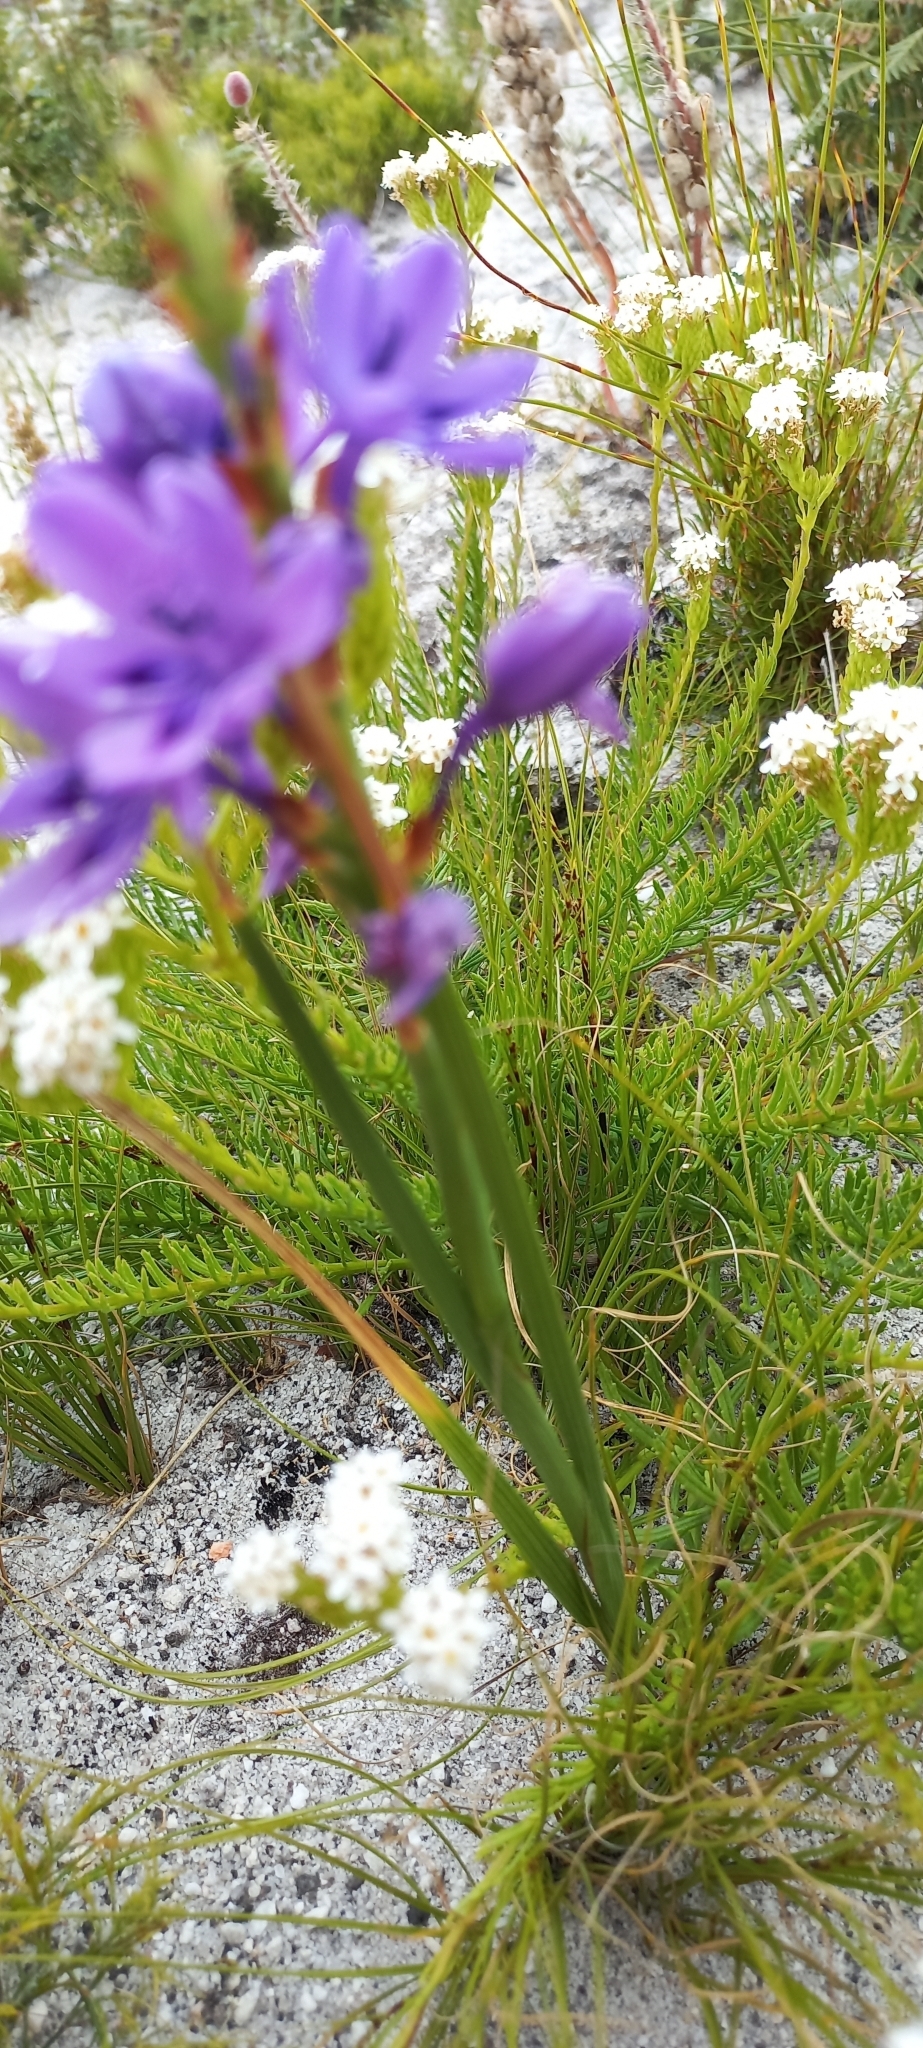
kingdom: Plantae
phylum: Tracheophyta
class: Liliopsida
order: Asparagales
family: Iridaceae
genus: Thereianthus
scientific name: Thereianthus spicatus
